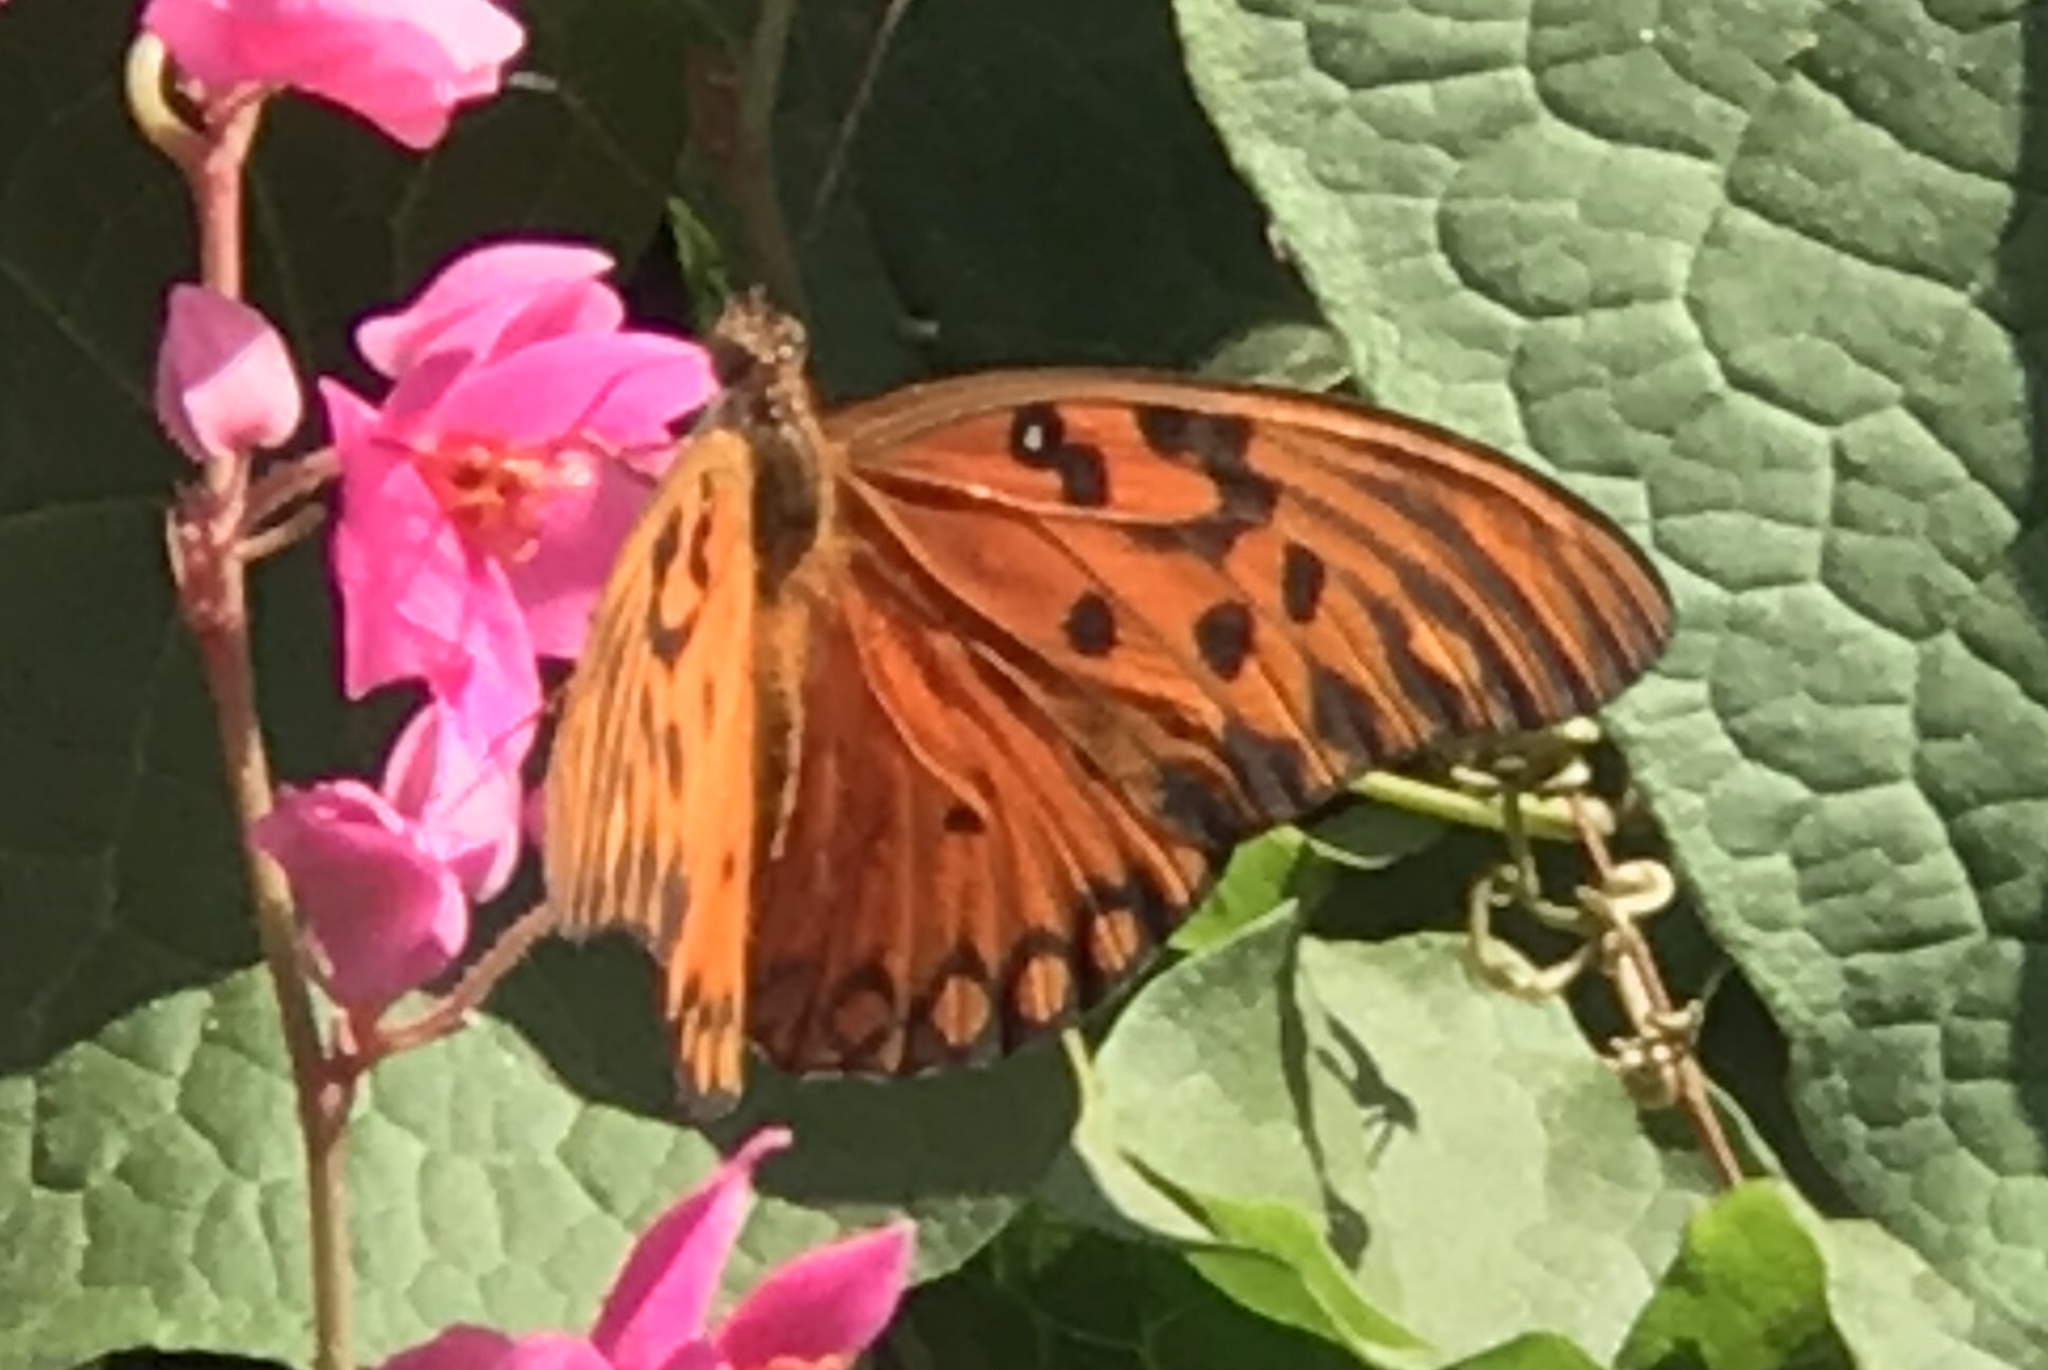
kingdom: Animalia
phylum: Arthropoda
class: Insecta
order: Lepidoptera
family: Nymphalidae
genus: Dione
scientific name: Dione vanillae
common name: Gulf fritillary
